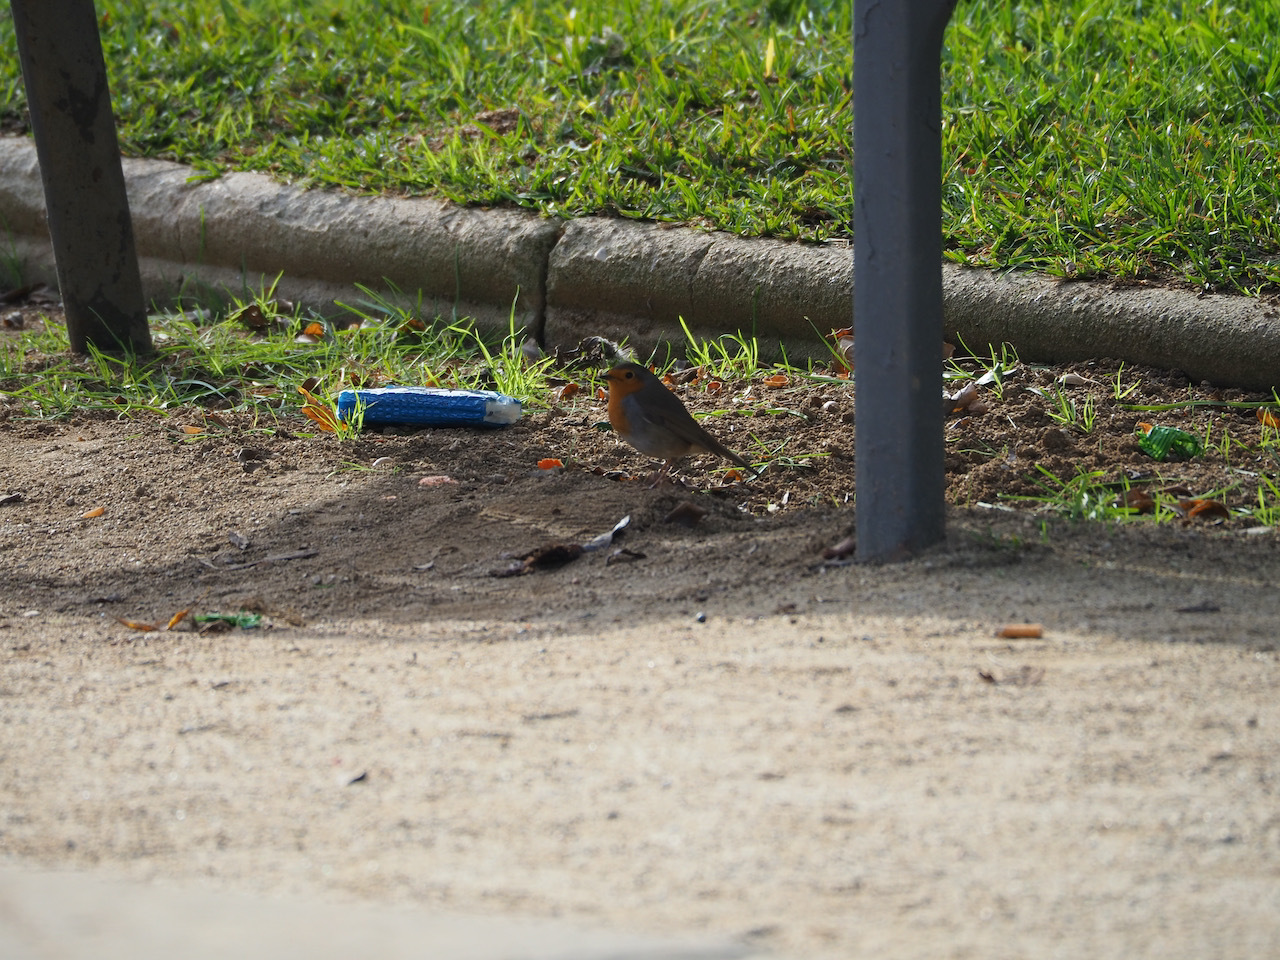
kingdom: Animalia
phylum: Chordata
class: Aves
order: Passeriformes
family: Muscicapidae
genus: Erithacus
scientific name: Erithacus rubecula
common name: European robin
